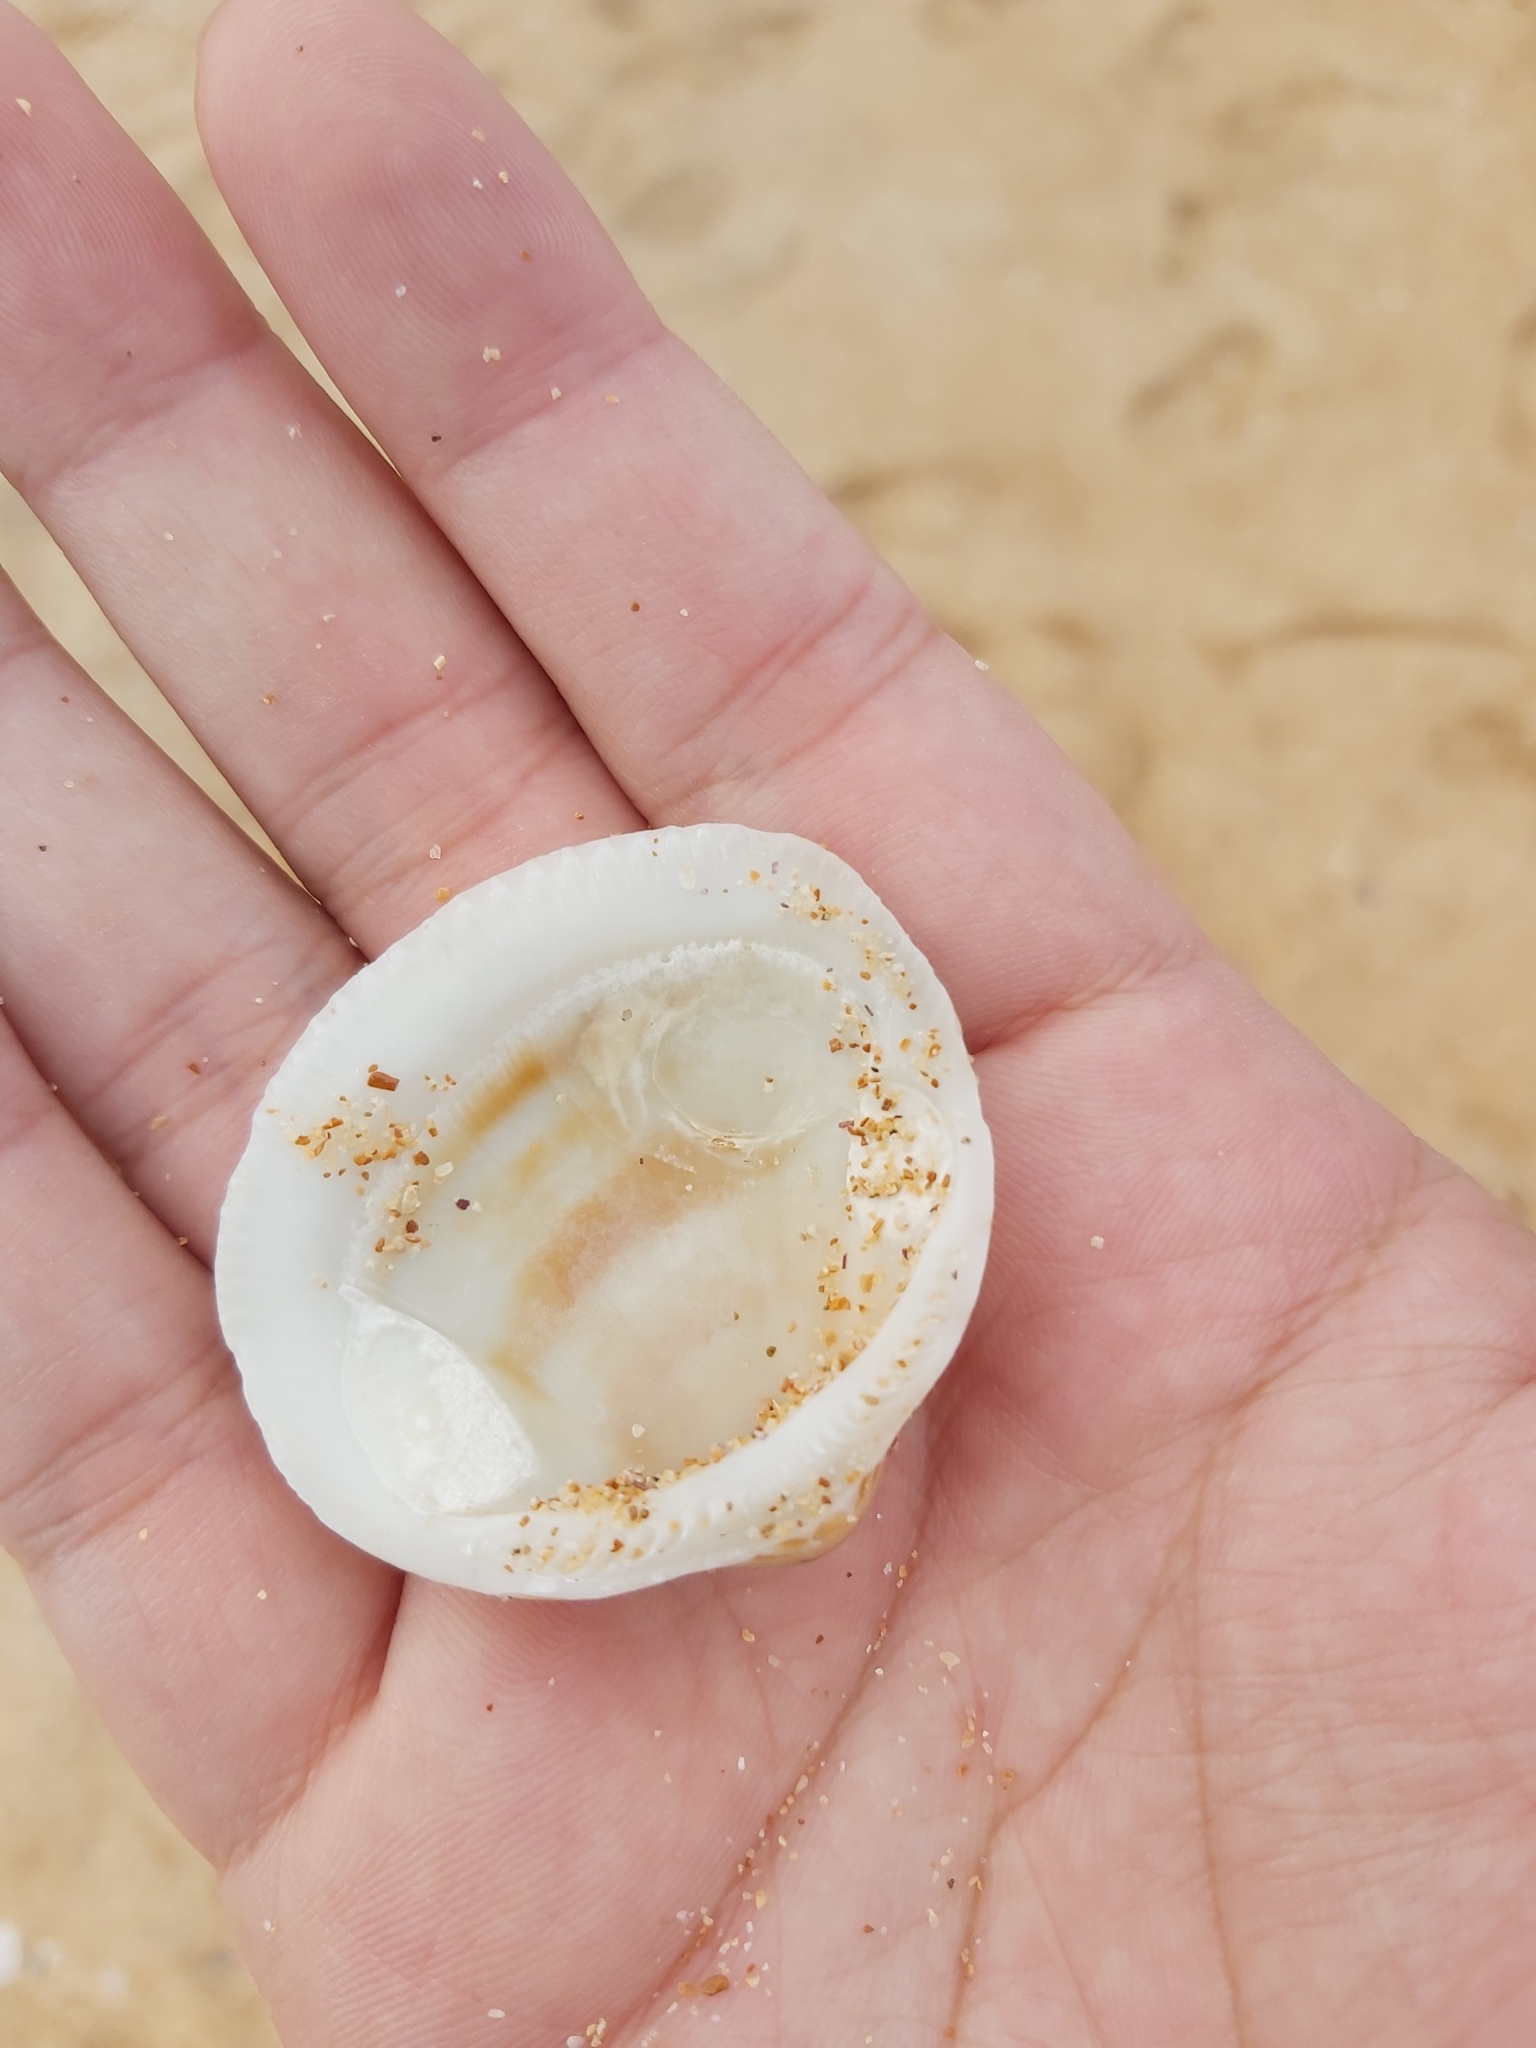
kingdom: Animalia
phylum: Mollusca
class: Bivalvia
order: Arcida
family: Glycymerididae
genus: Glycymeris
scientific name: Glycymeris grayana
